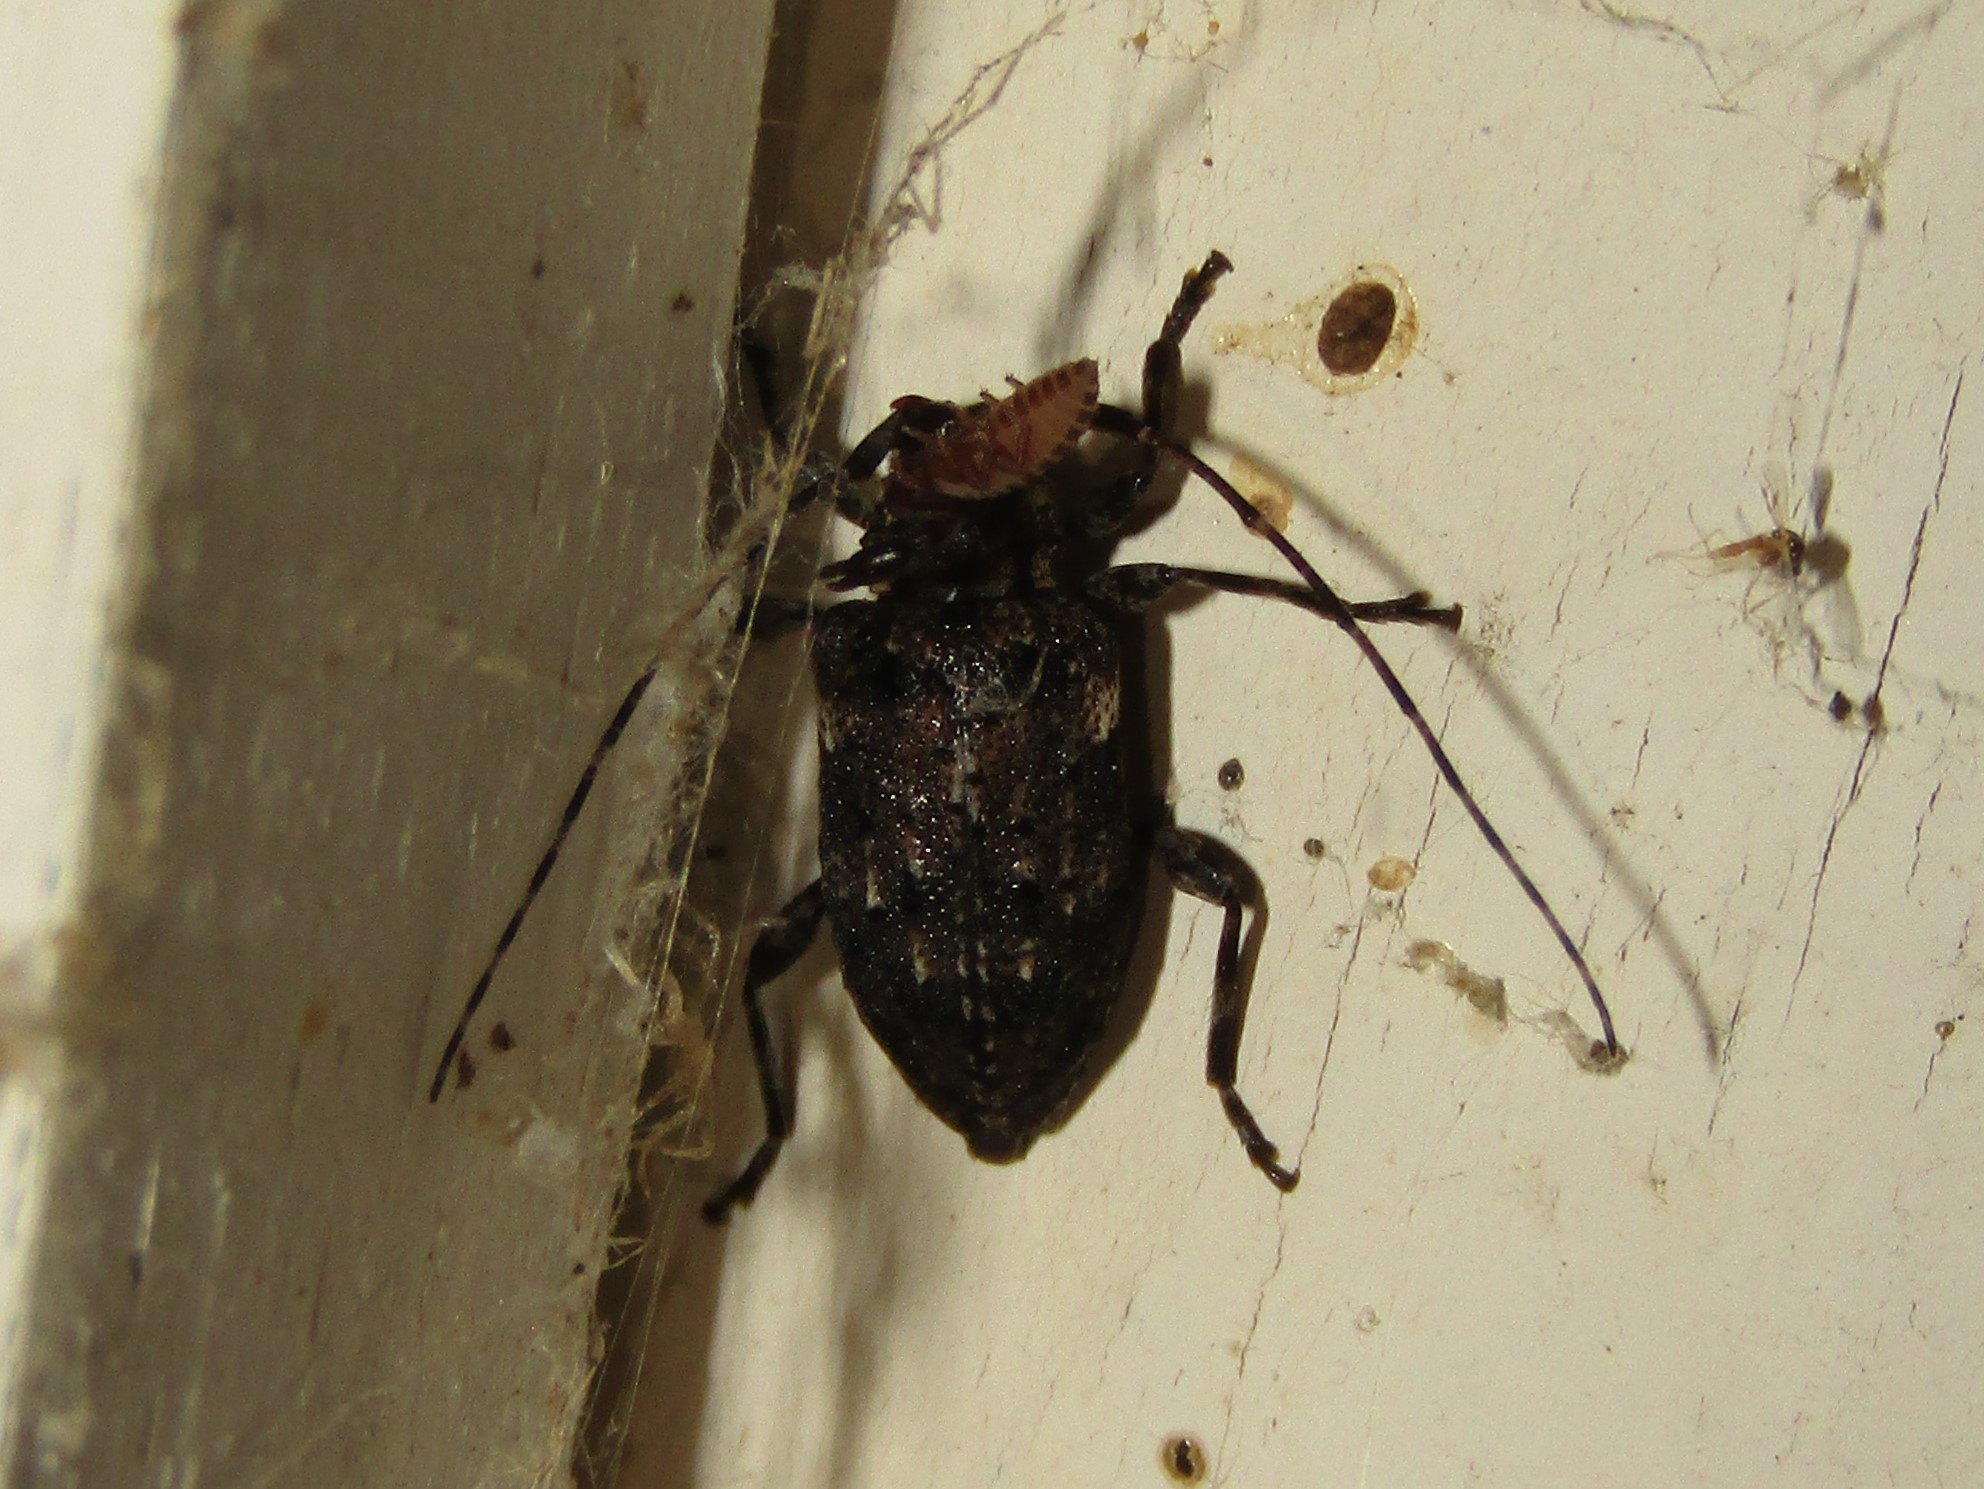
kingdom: Animalia
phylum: Arthropoda
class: Insecta
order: Coleoptera
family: Cerambycidae
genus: Astylopsis
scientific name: Astylopsis sexguttata
